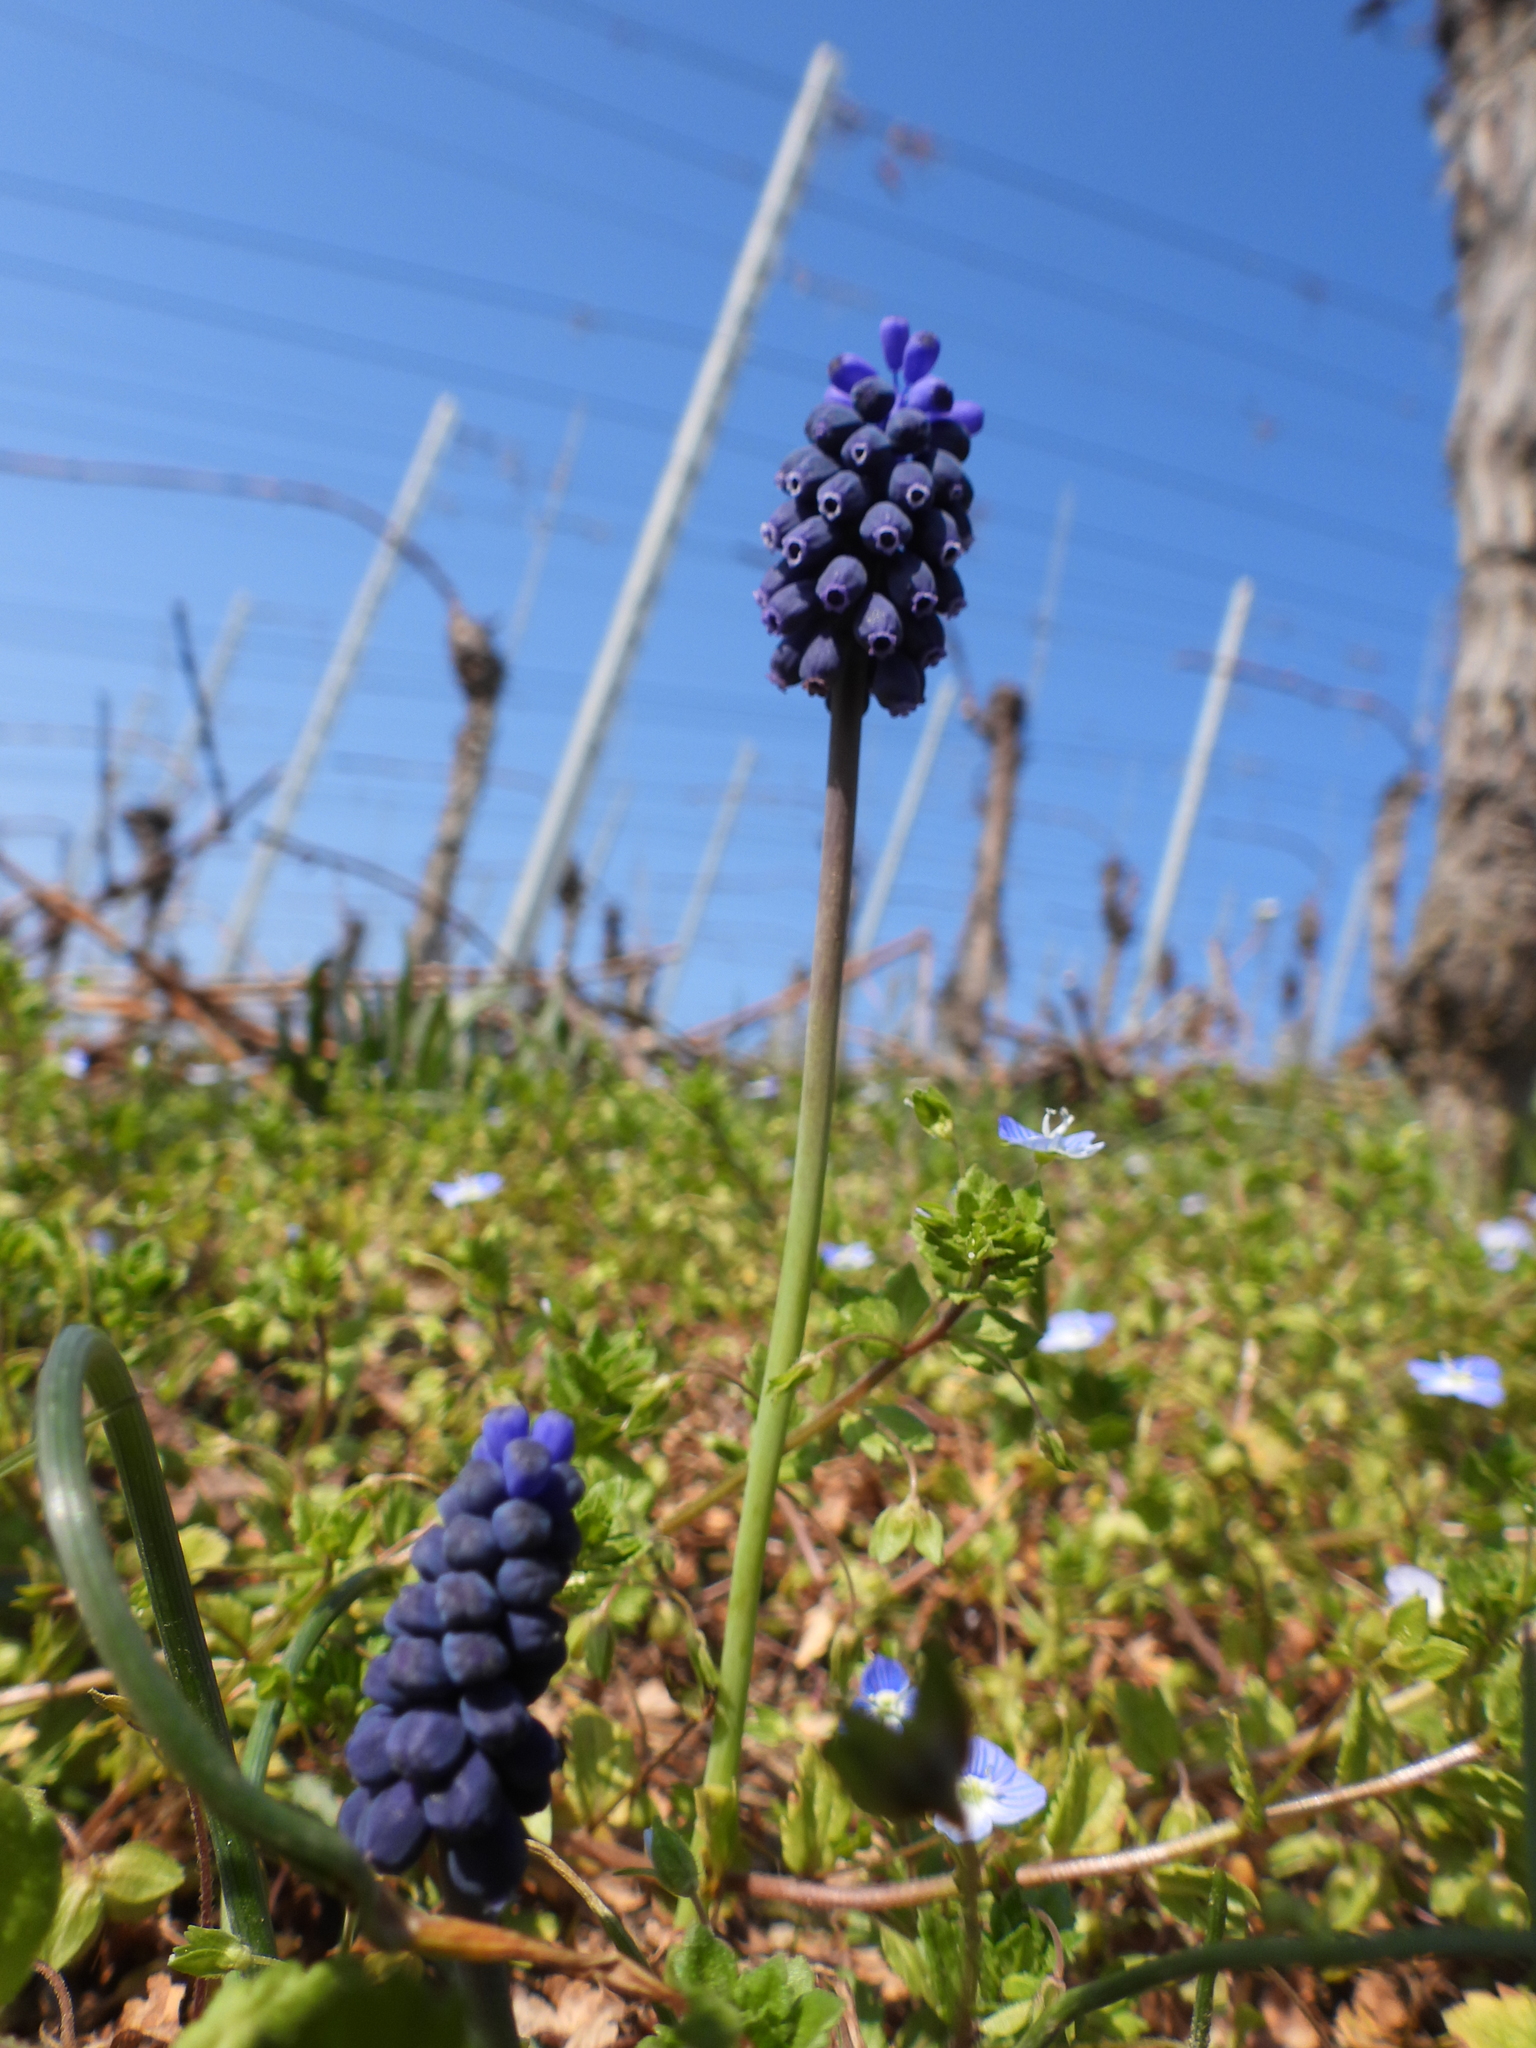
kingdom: Plantae
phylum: Tracheophyta
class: Liliopsida
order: Asparagales
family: Asparagaceae
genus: Muscari
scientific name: Muscari neglectum
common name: Grape-hyacinth
